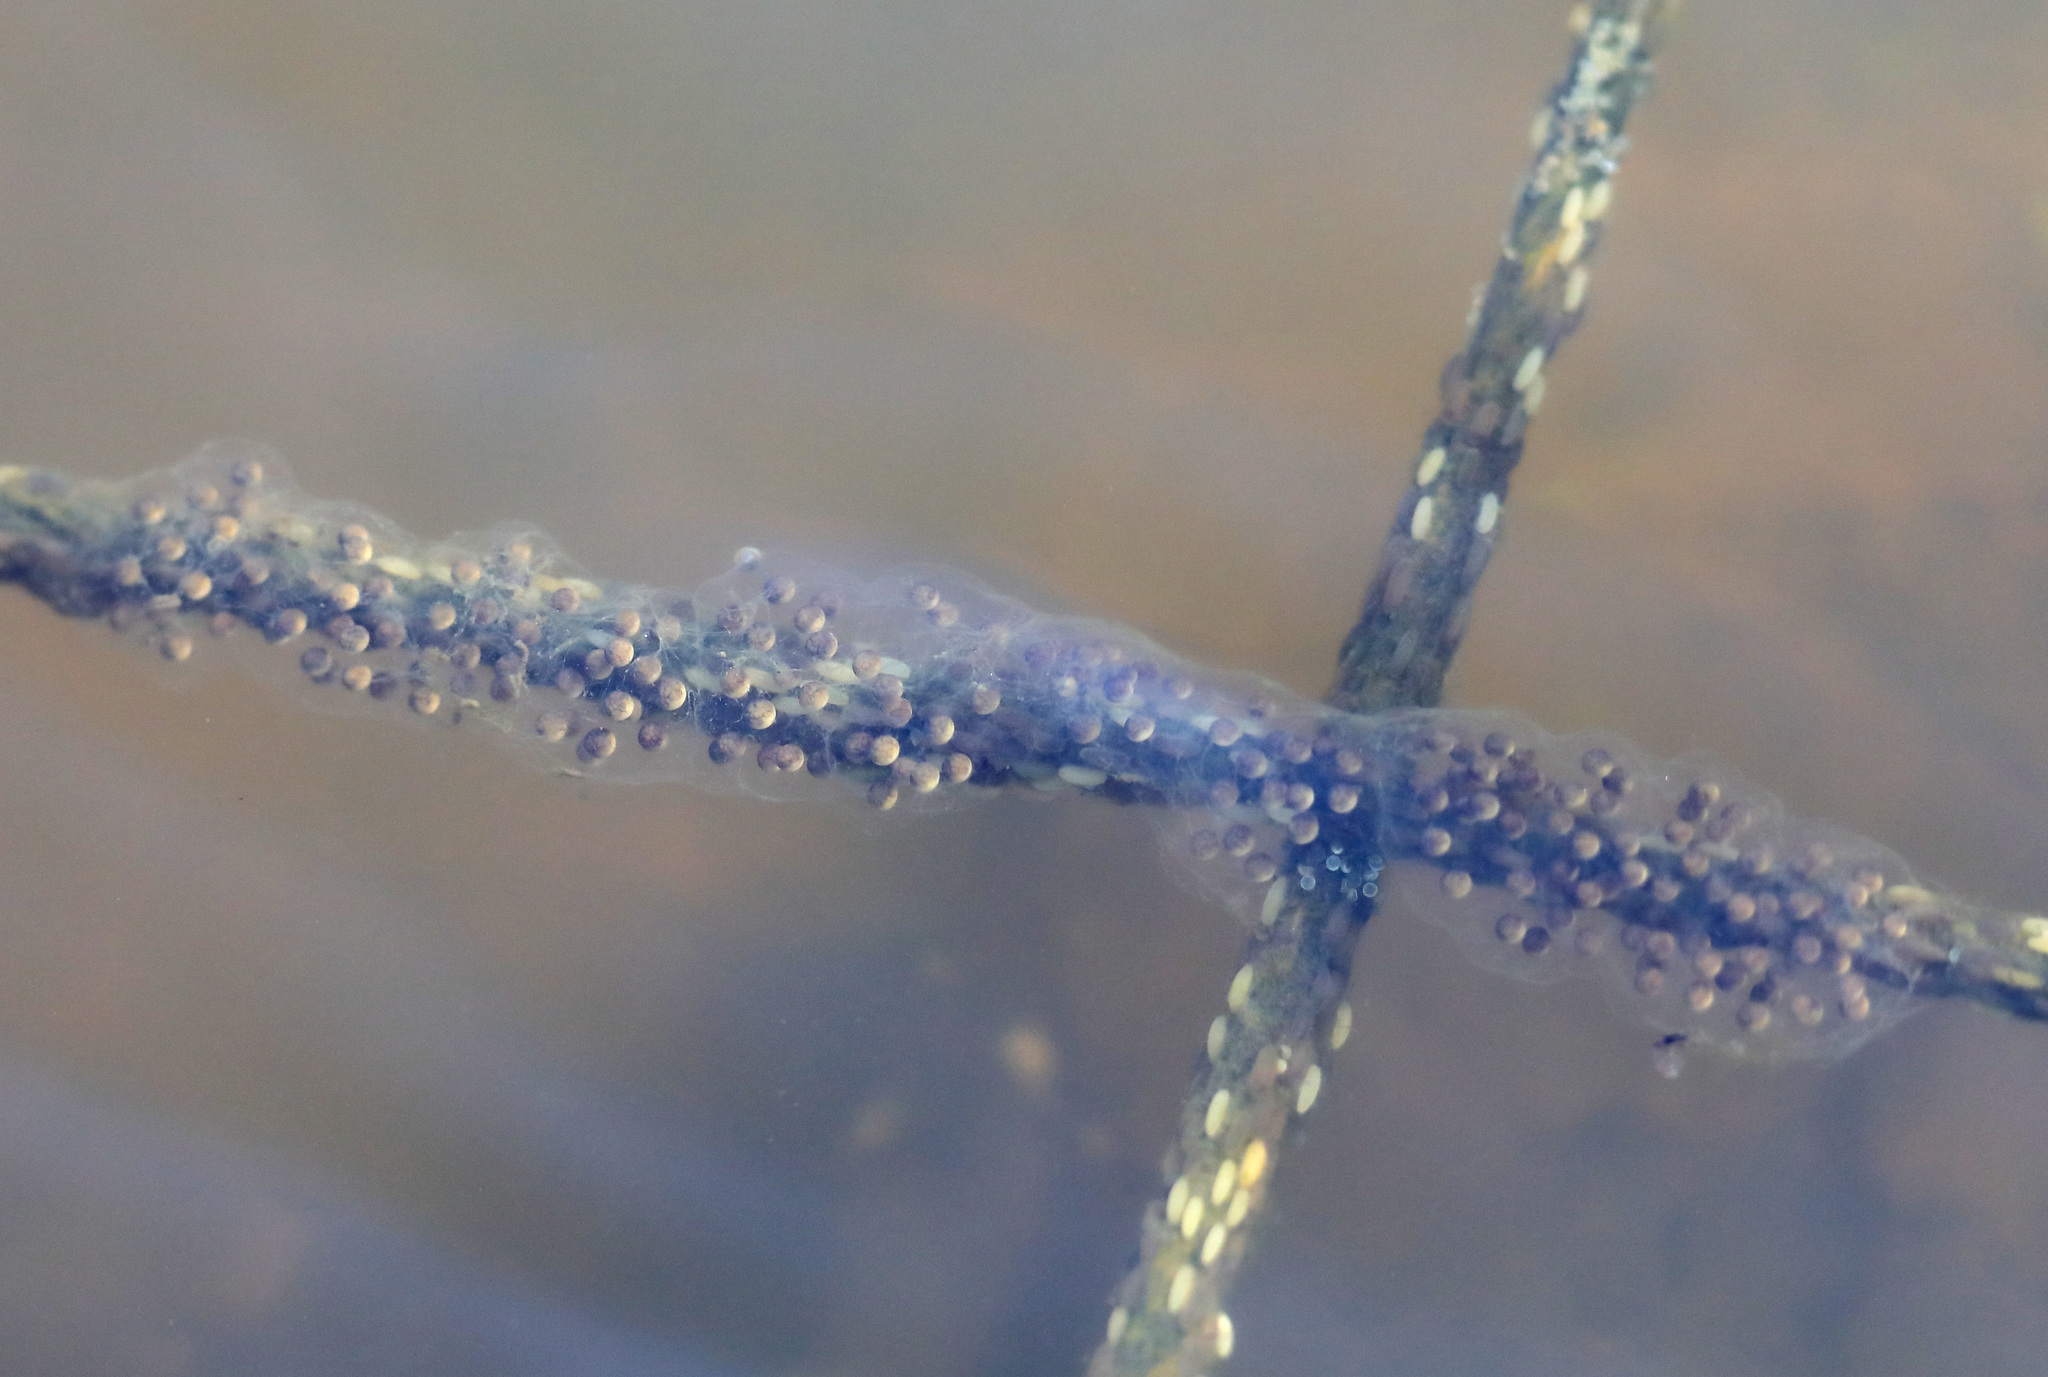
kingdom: Animalia
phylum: Chordata
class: Amphibia
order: Anura
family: Hylidae
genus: Pseudacris
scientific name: Pseudacris regilla
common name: Pacific chorus frog
